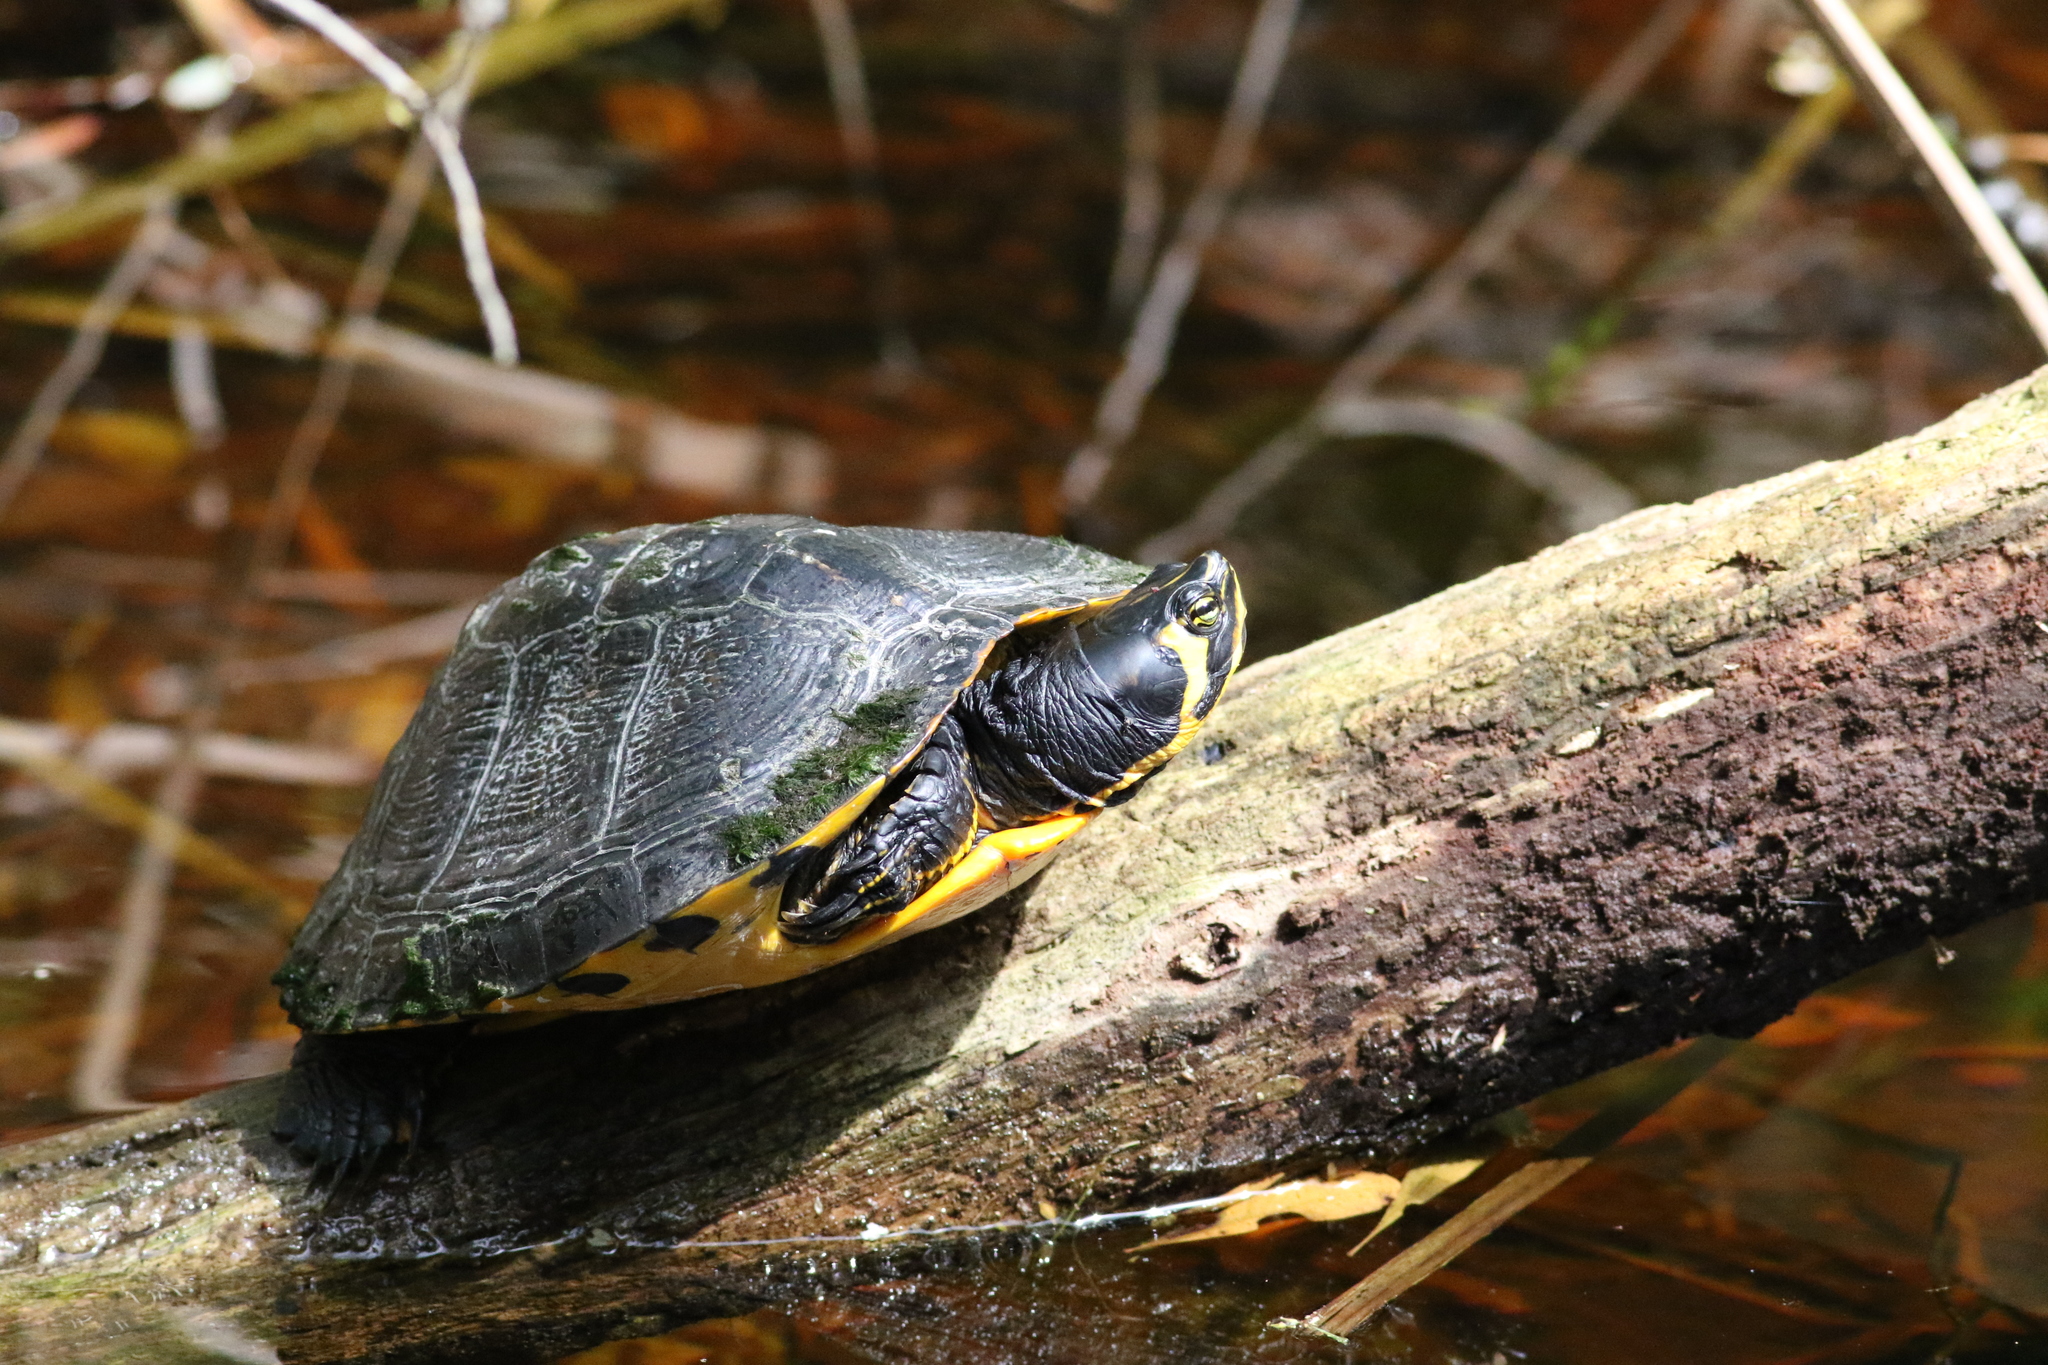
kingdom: Animalia
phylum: Chordata
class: Testudines
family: Emydidae
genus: Trachemys
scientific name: Trachemys scripta
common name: Slider
